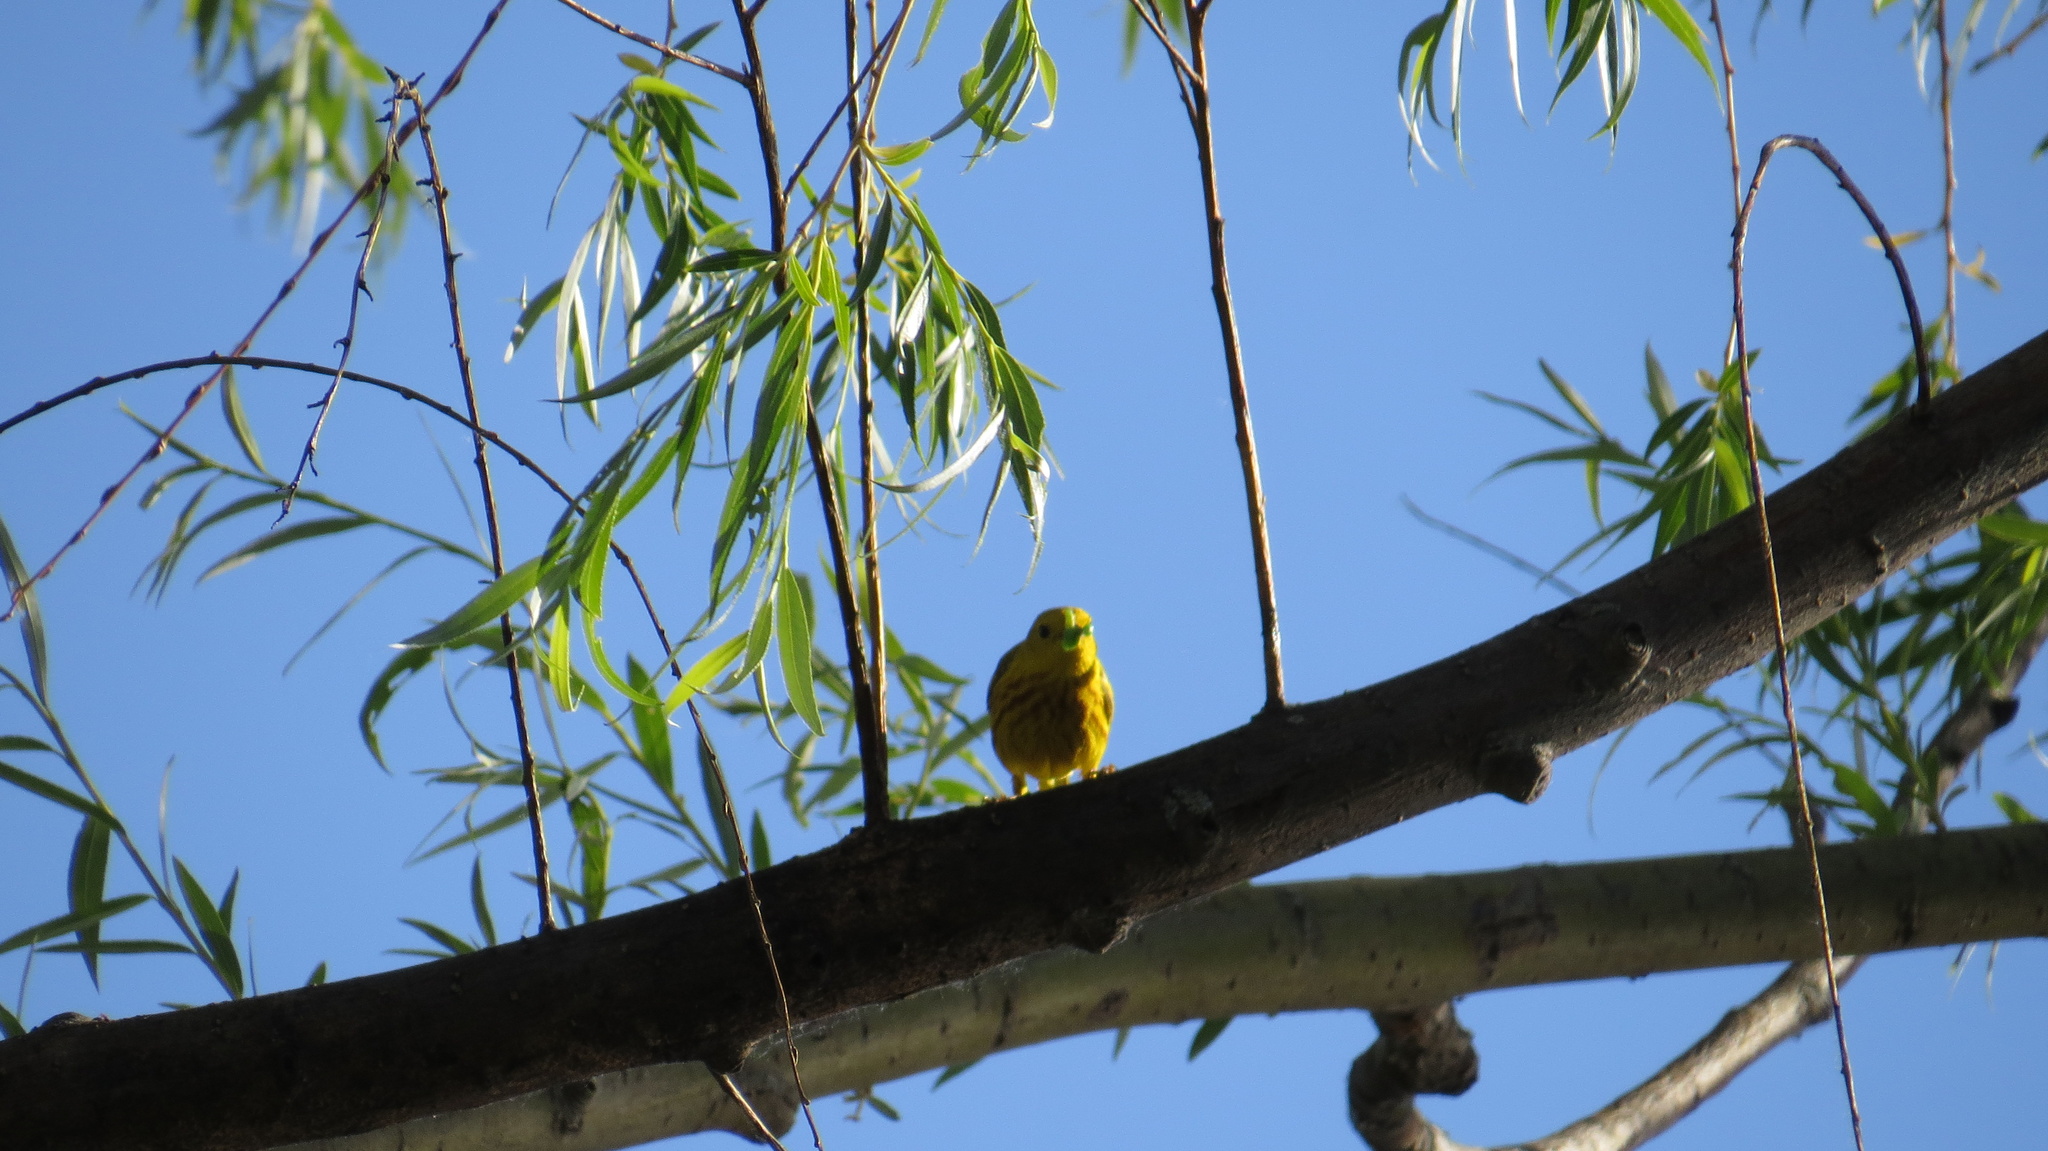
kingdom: Animalia
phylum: Chordata
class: Aves
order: Passeriformes
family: Parulidae
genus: Setophaga
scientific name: Setophaga petechia
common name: Yellow warbler
